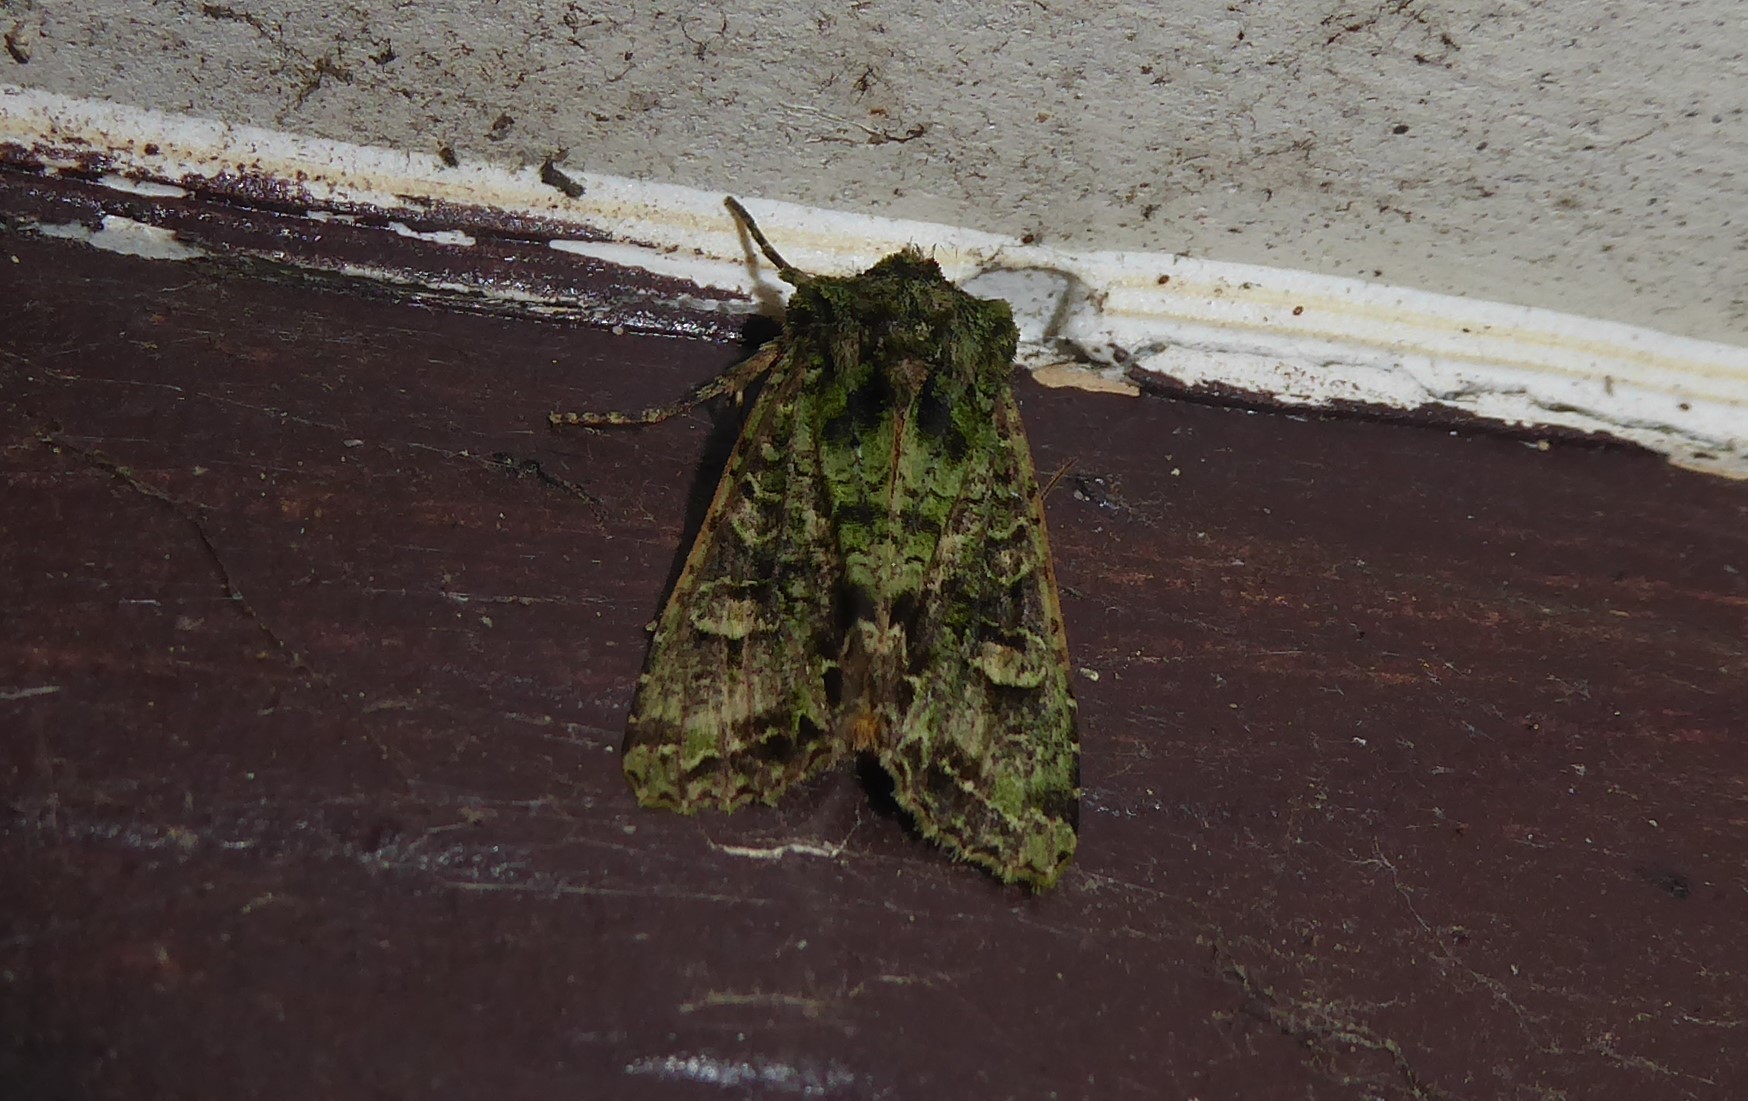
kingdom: Animalia
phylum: Arthropoda
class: Insecta
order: Lepidoptera
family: Noctuidae
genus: Ichneutica
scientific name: Ichneutica
